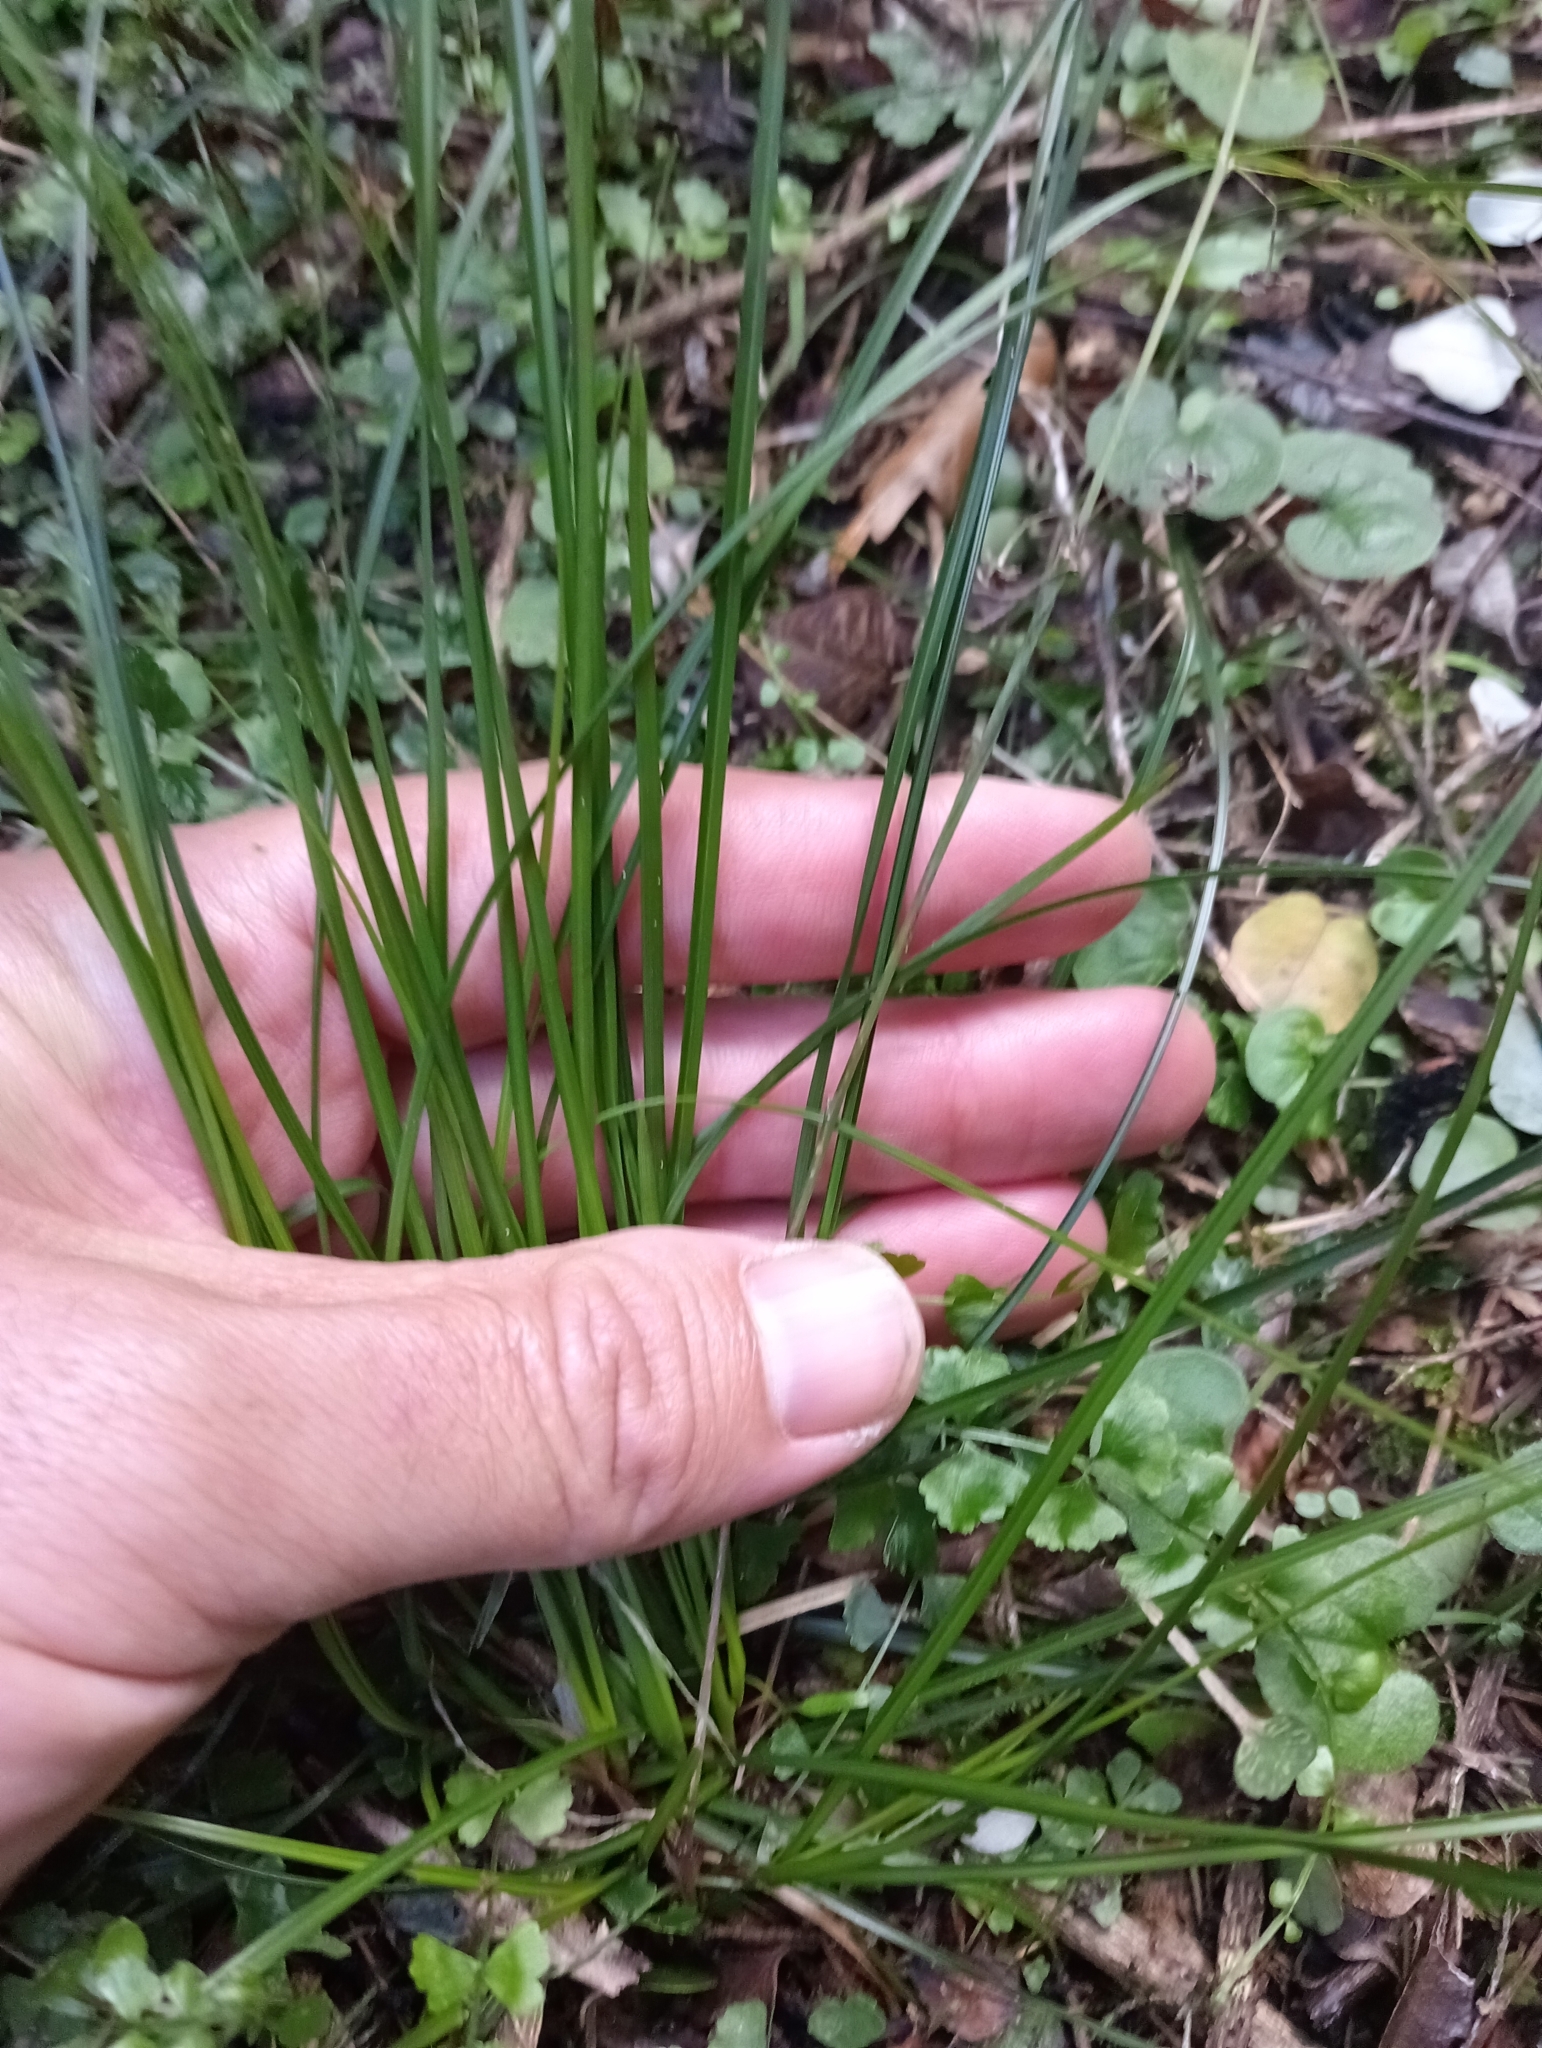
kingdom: Plantae
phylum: Tracheophyta
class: Liliopsida
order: Poales
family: Cyperaceae
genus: Carex
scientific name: Carex banksiana
